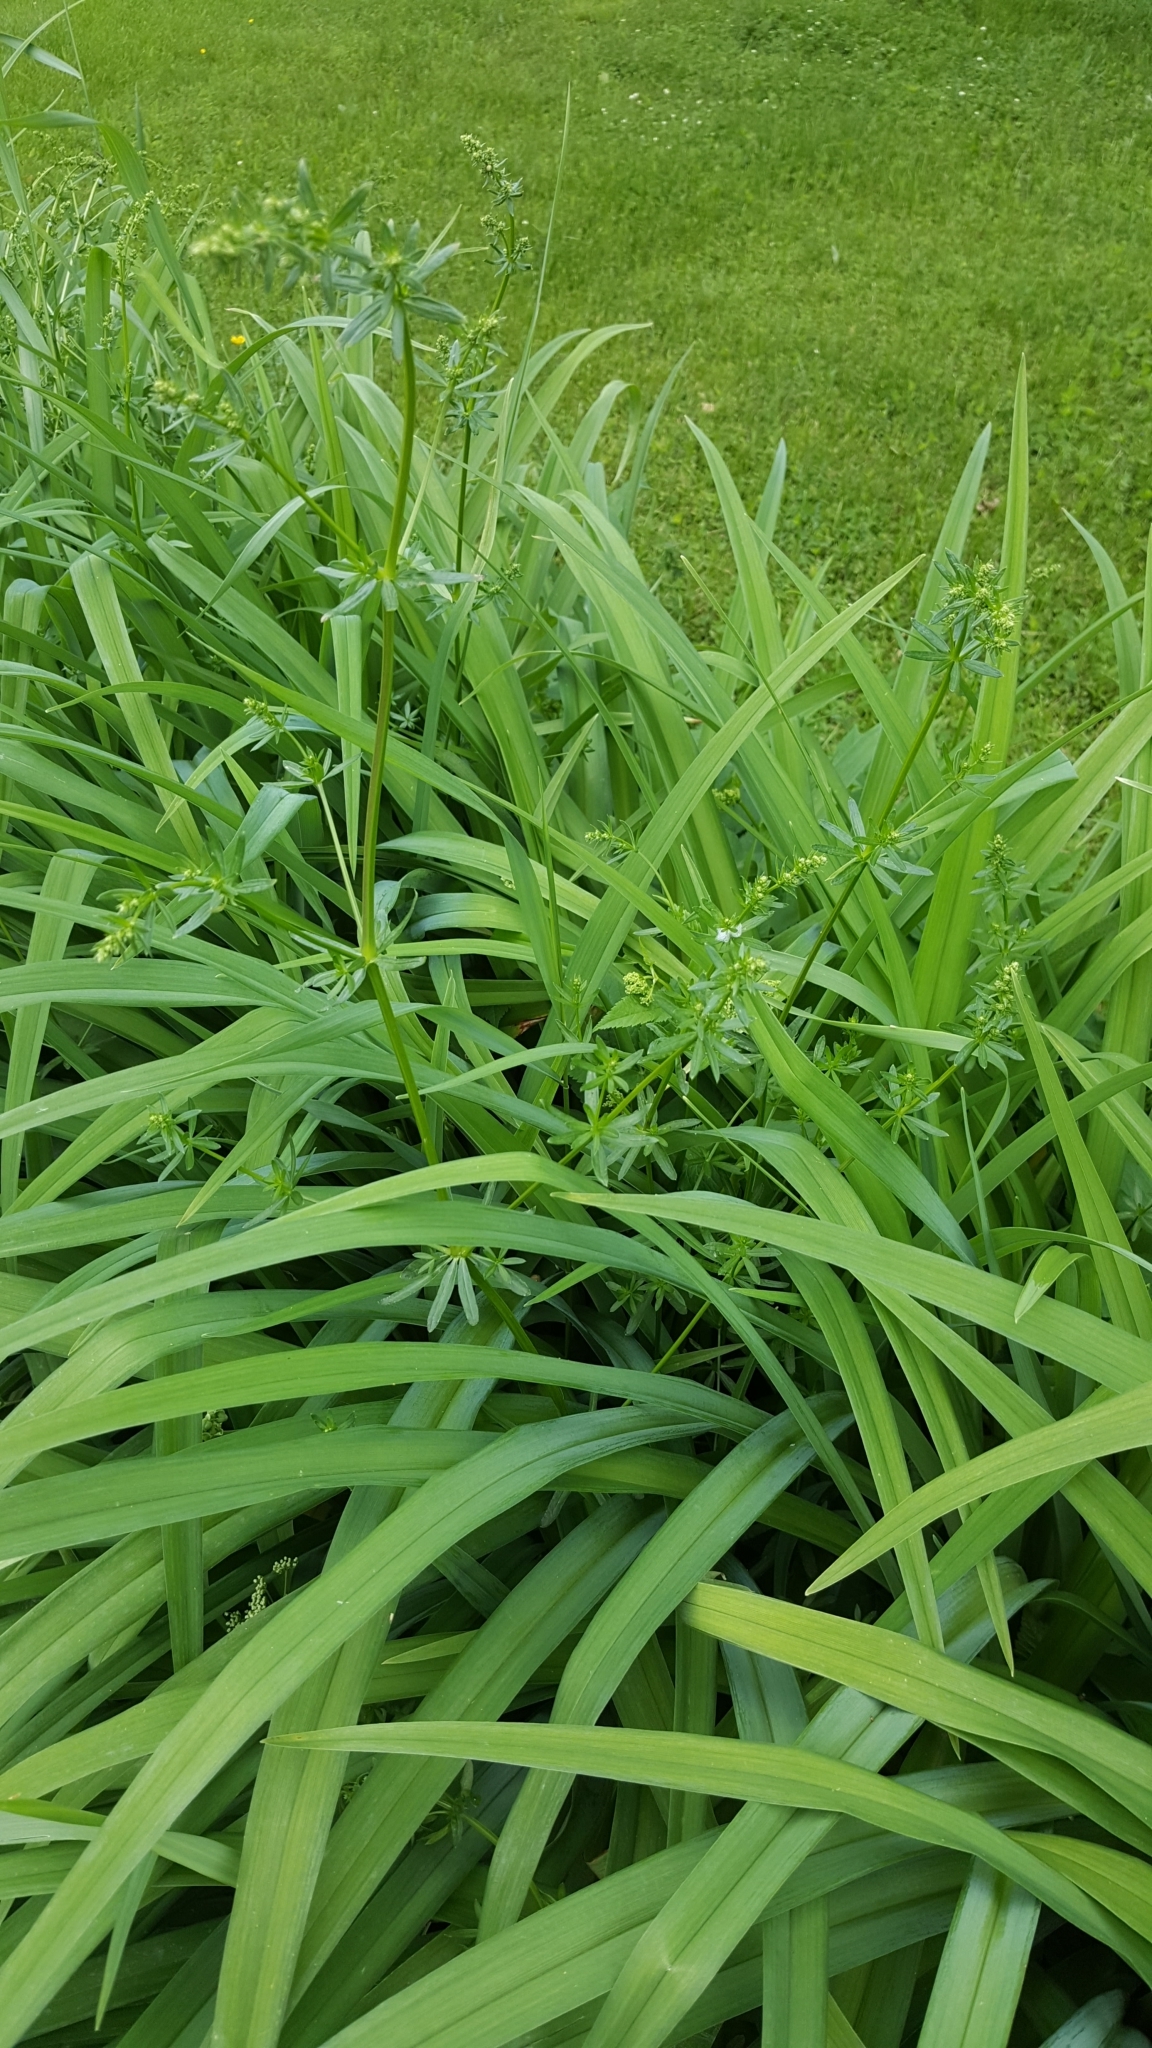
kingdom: Plantae
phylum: Tracheophyta
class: Magnoliopsida
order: Gentianales
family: Rubiaceae
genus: Galium
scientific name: Galium mollugo
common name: Hedge bedstraw
